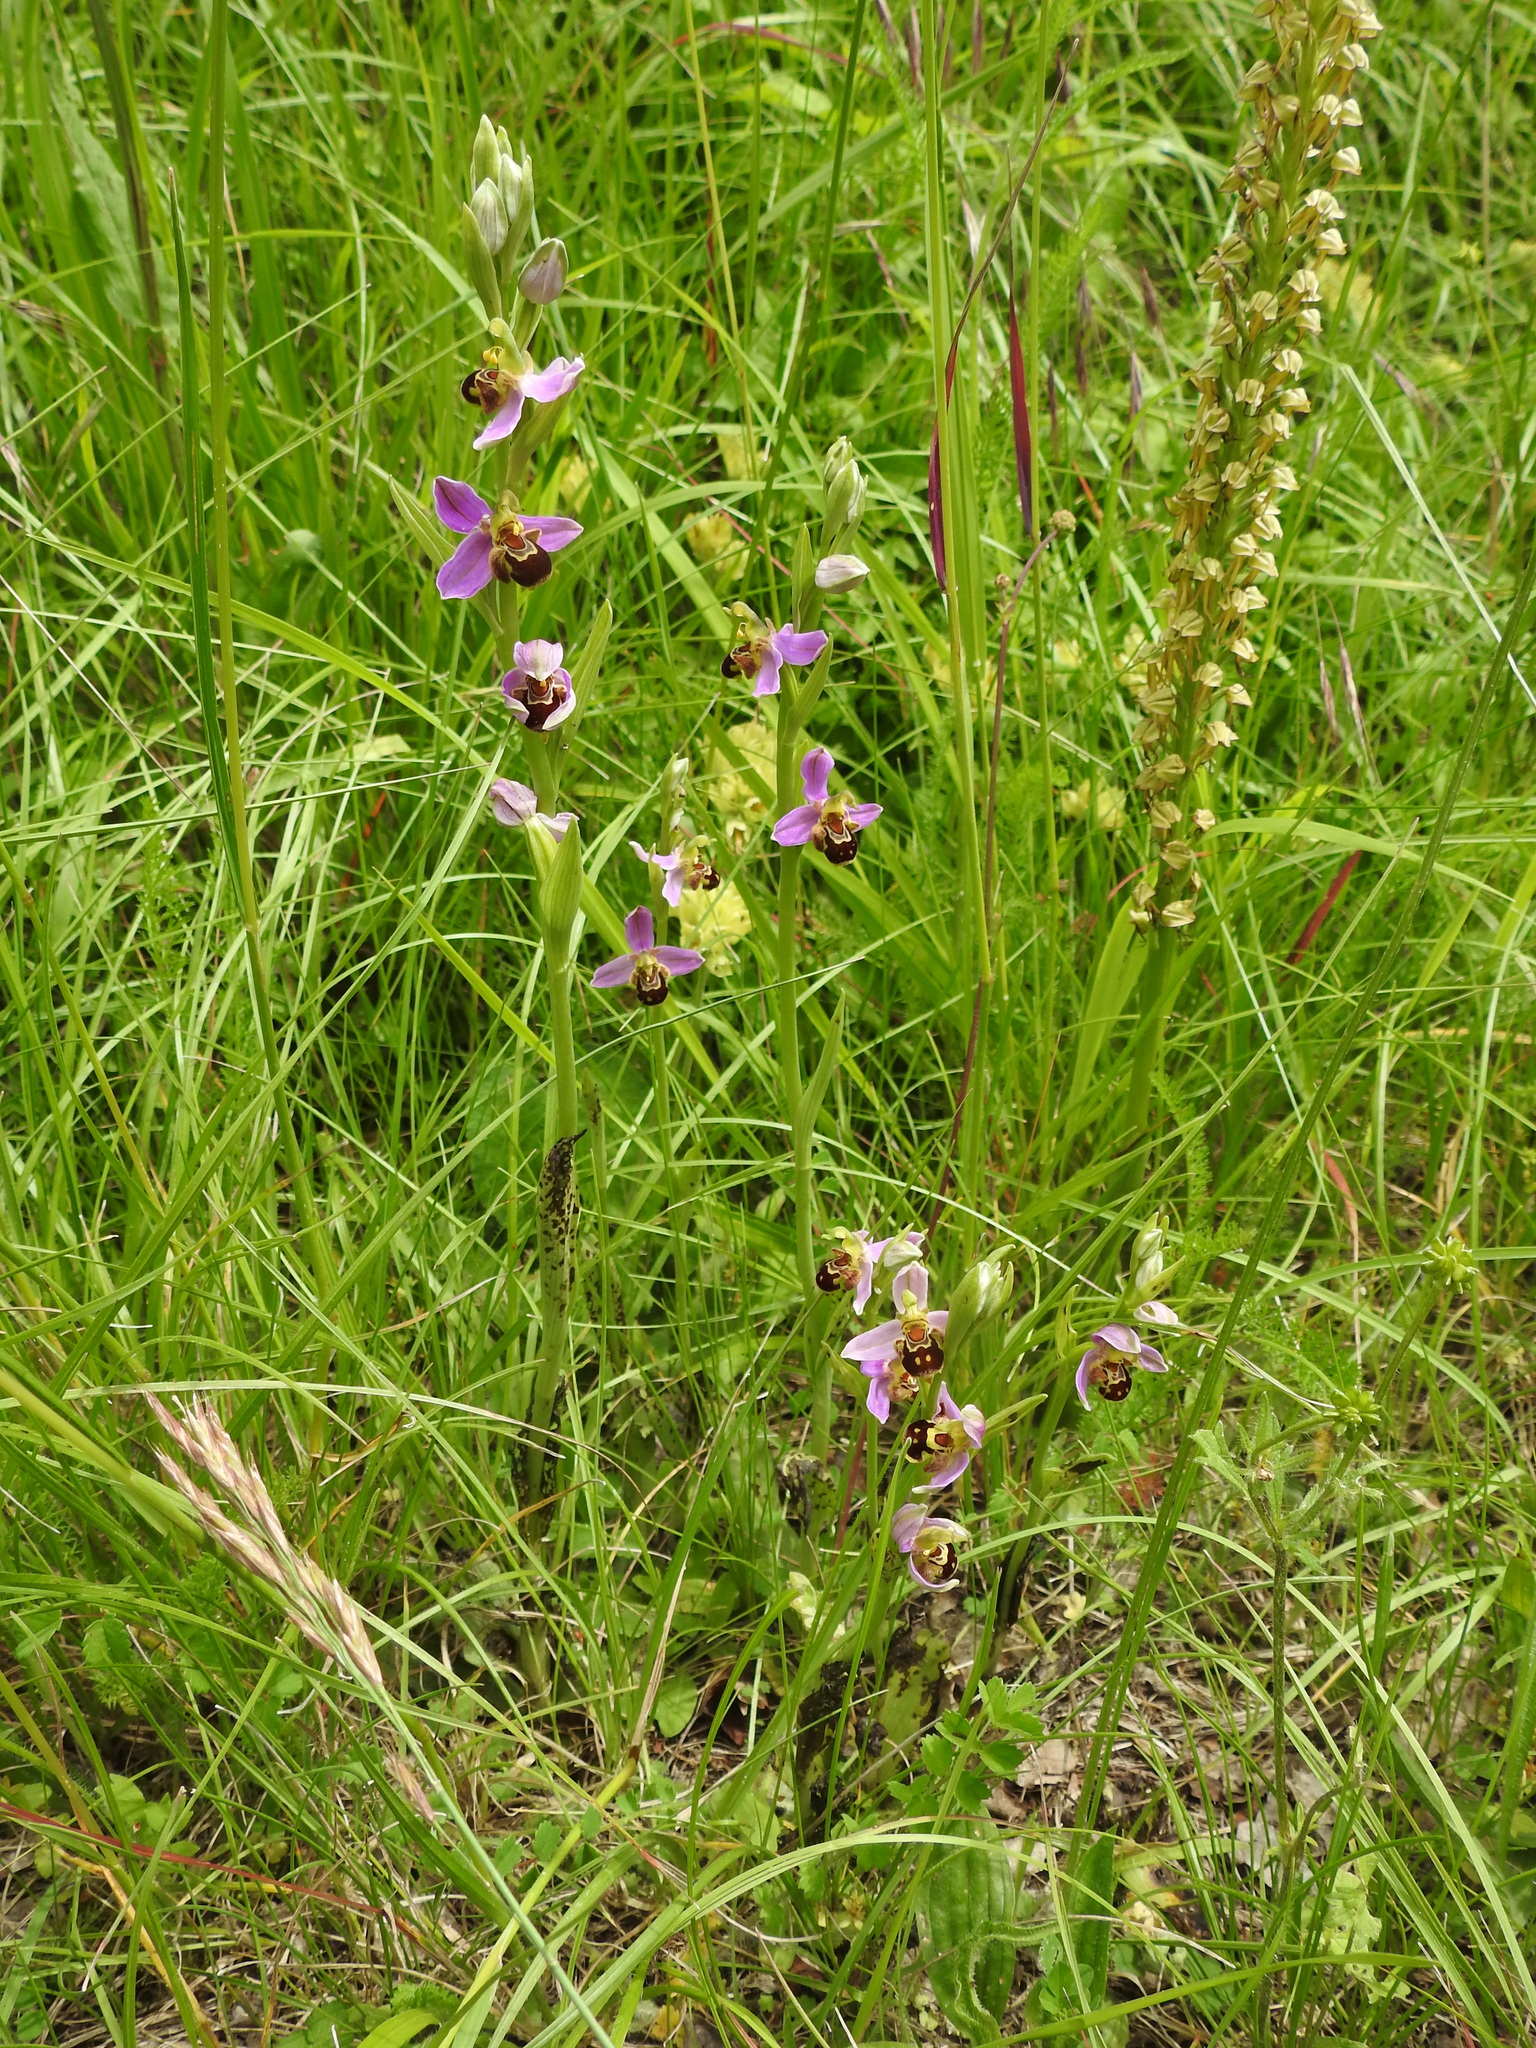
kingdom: Plantae
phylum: Tracheophyta
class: Liliopsida
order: Asparagales
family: Orchidaceae
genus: Ophrys
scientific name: Ophrys apifera
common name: Bee orchid
